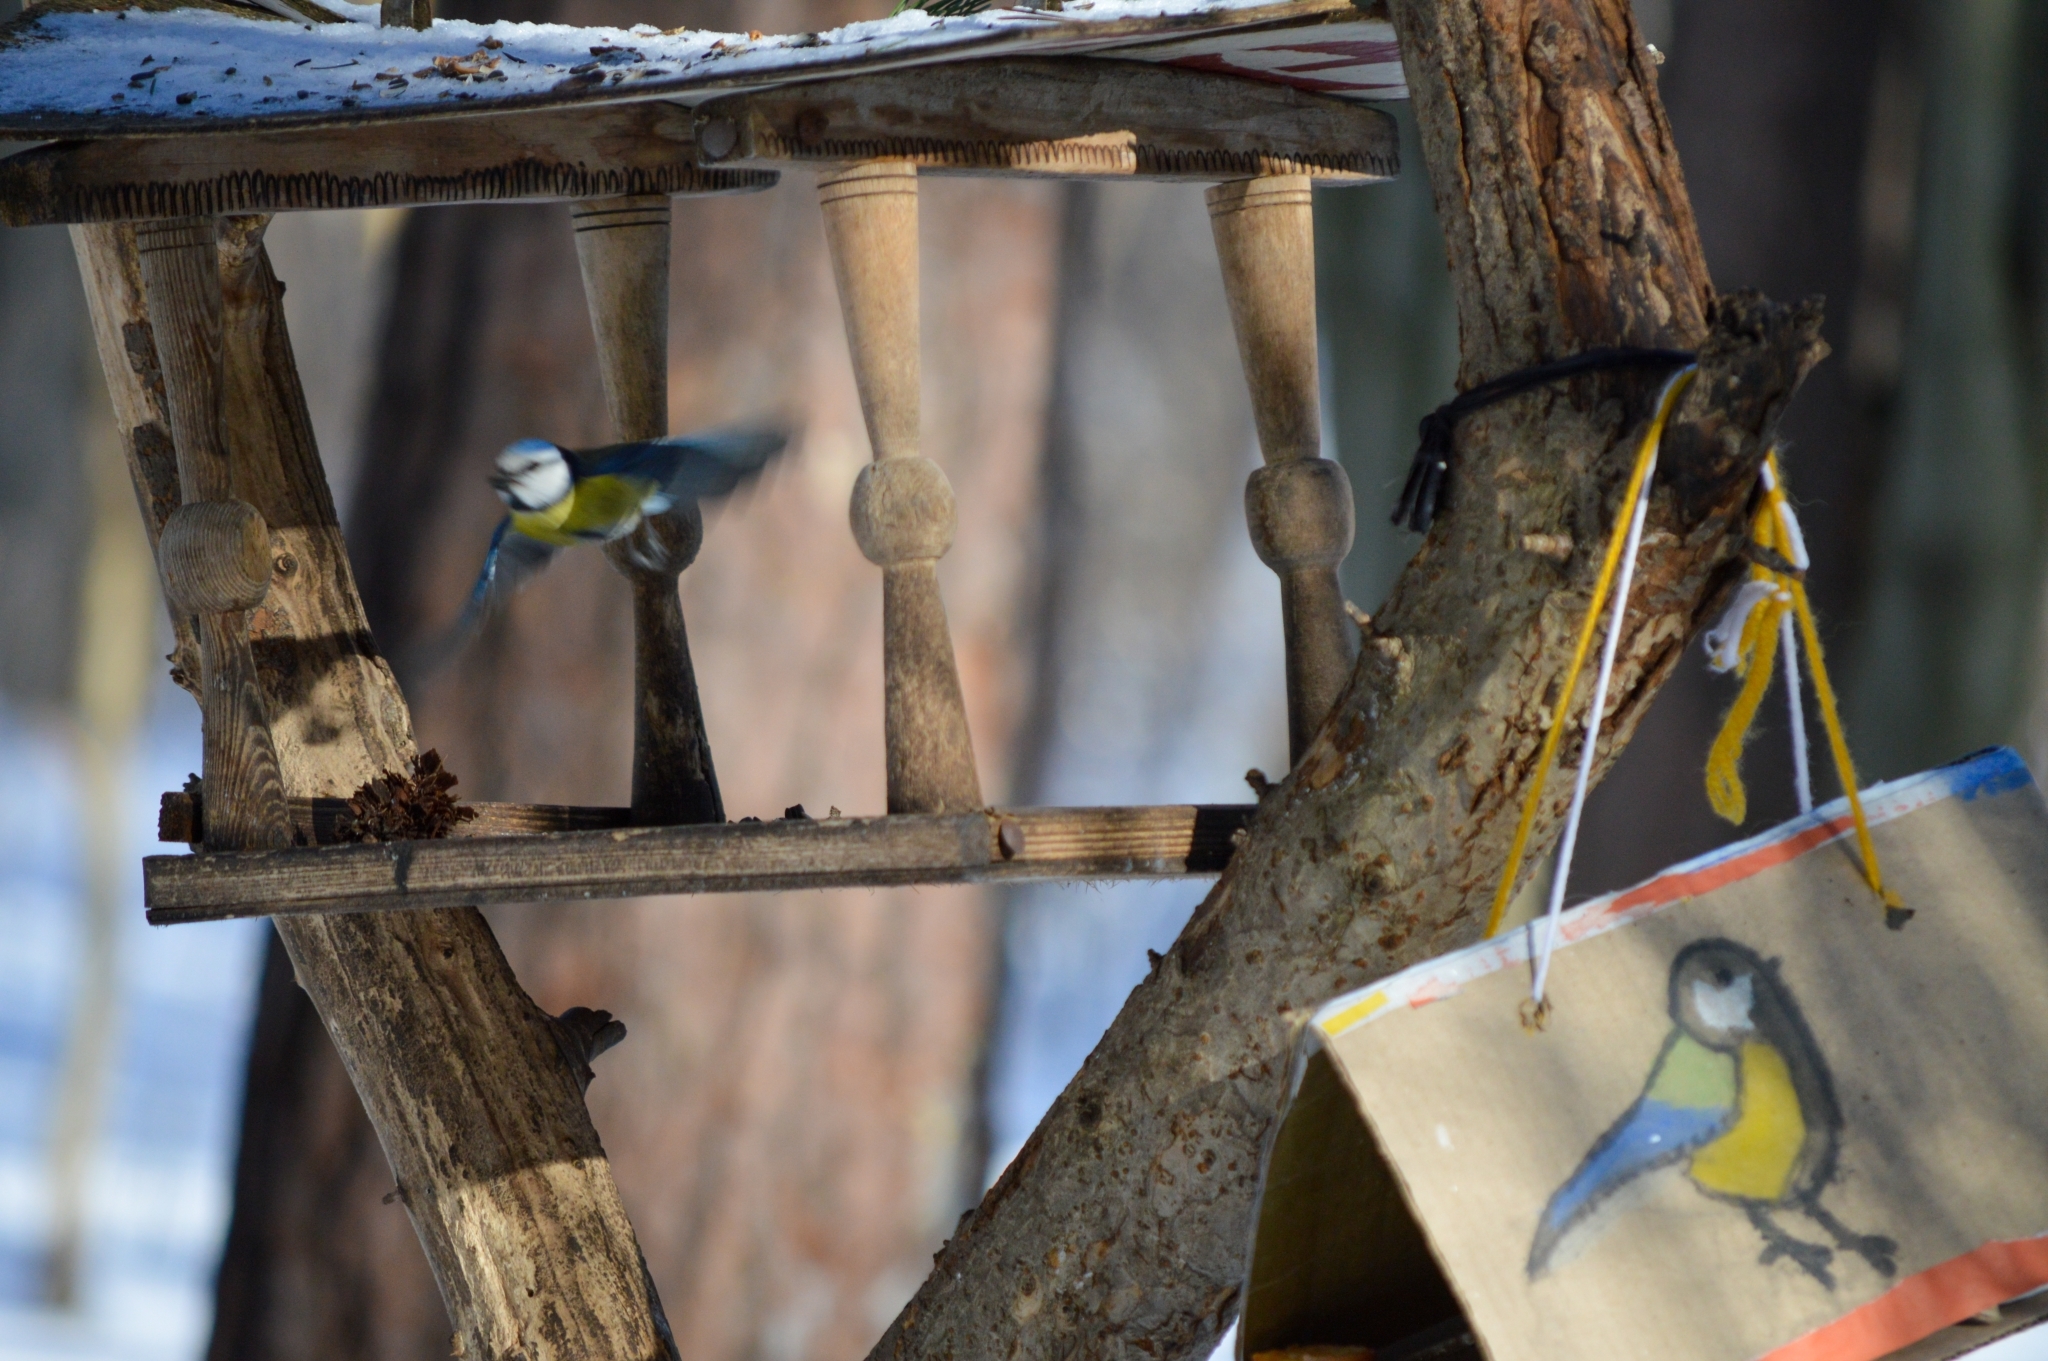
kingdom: Animalia
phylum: Chordata
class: Aves
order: Passeriformes
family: Paridae
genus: Cyanistes
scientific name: Cyanistes caeruleus
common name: Eurasian blue tit
